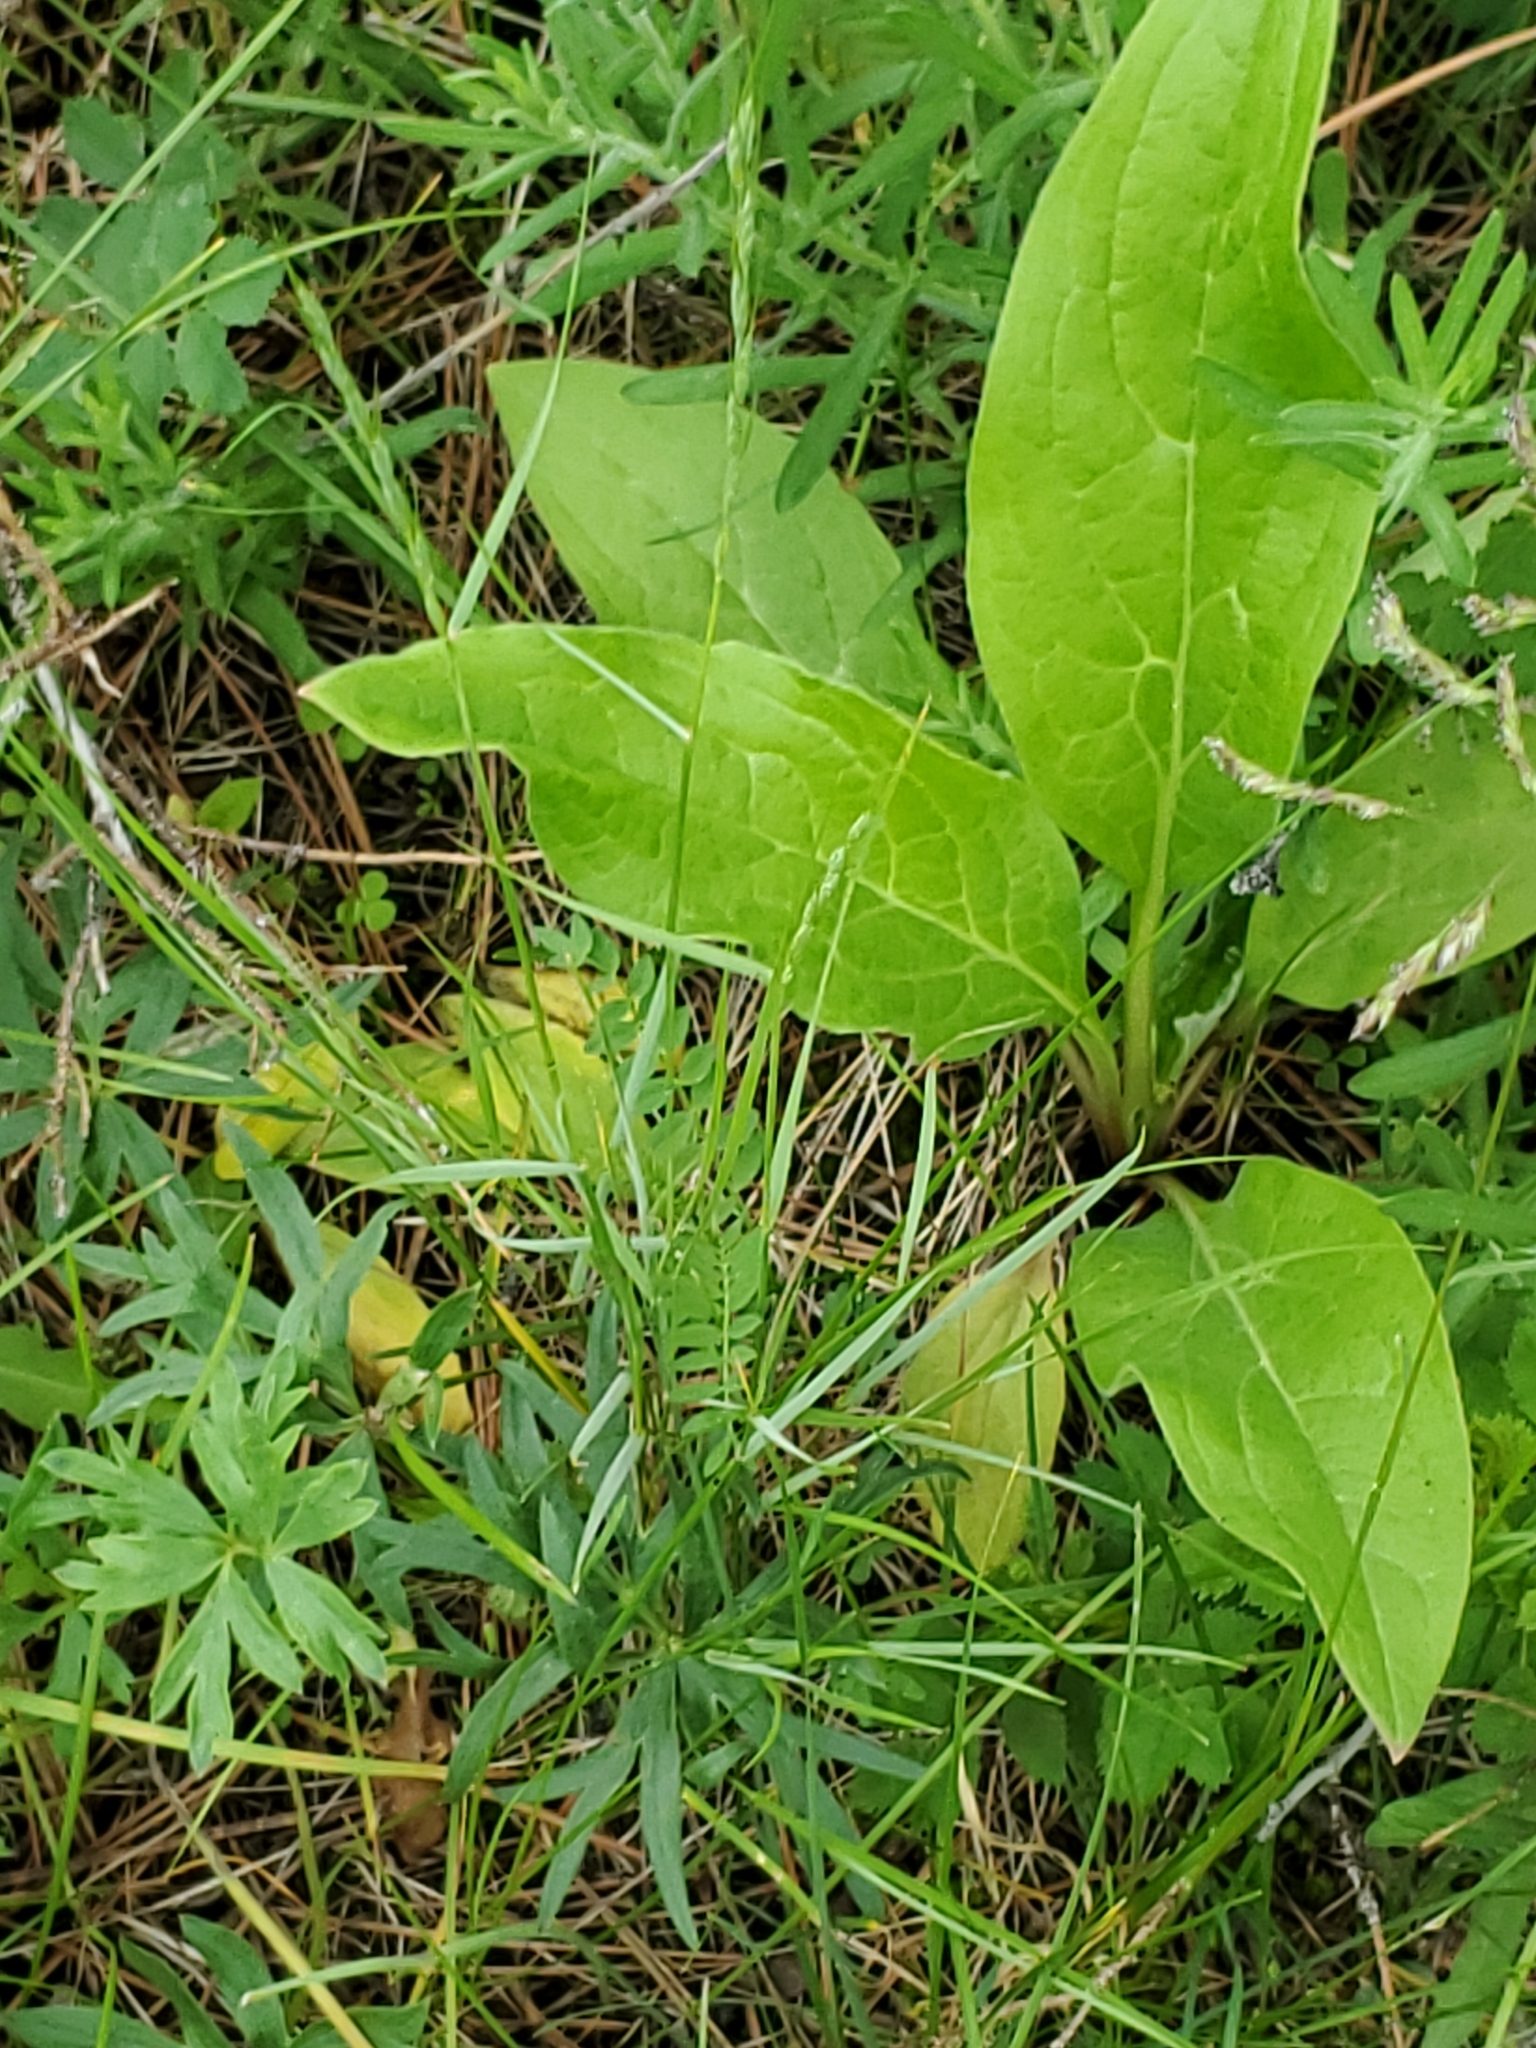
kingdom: Plantae
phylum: Tracheophyta
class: Magnoliopsida
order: Boraginales
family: Boraginaceae
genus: Cynoglossum
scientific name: Cynoglossum officinale
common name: Hound's-tongue
